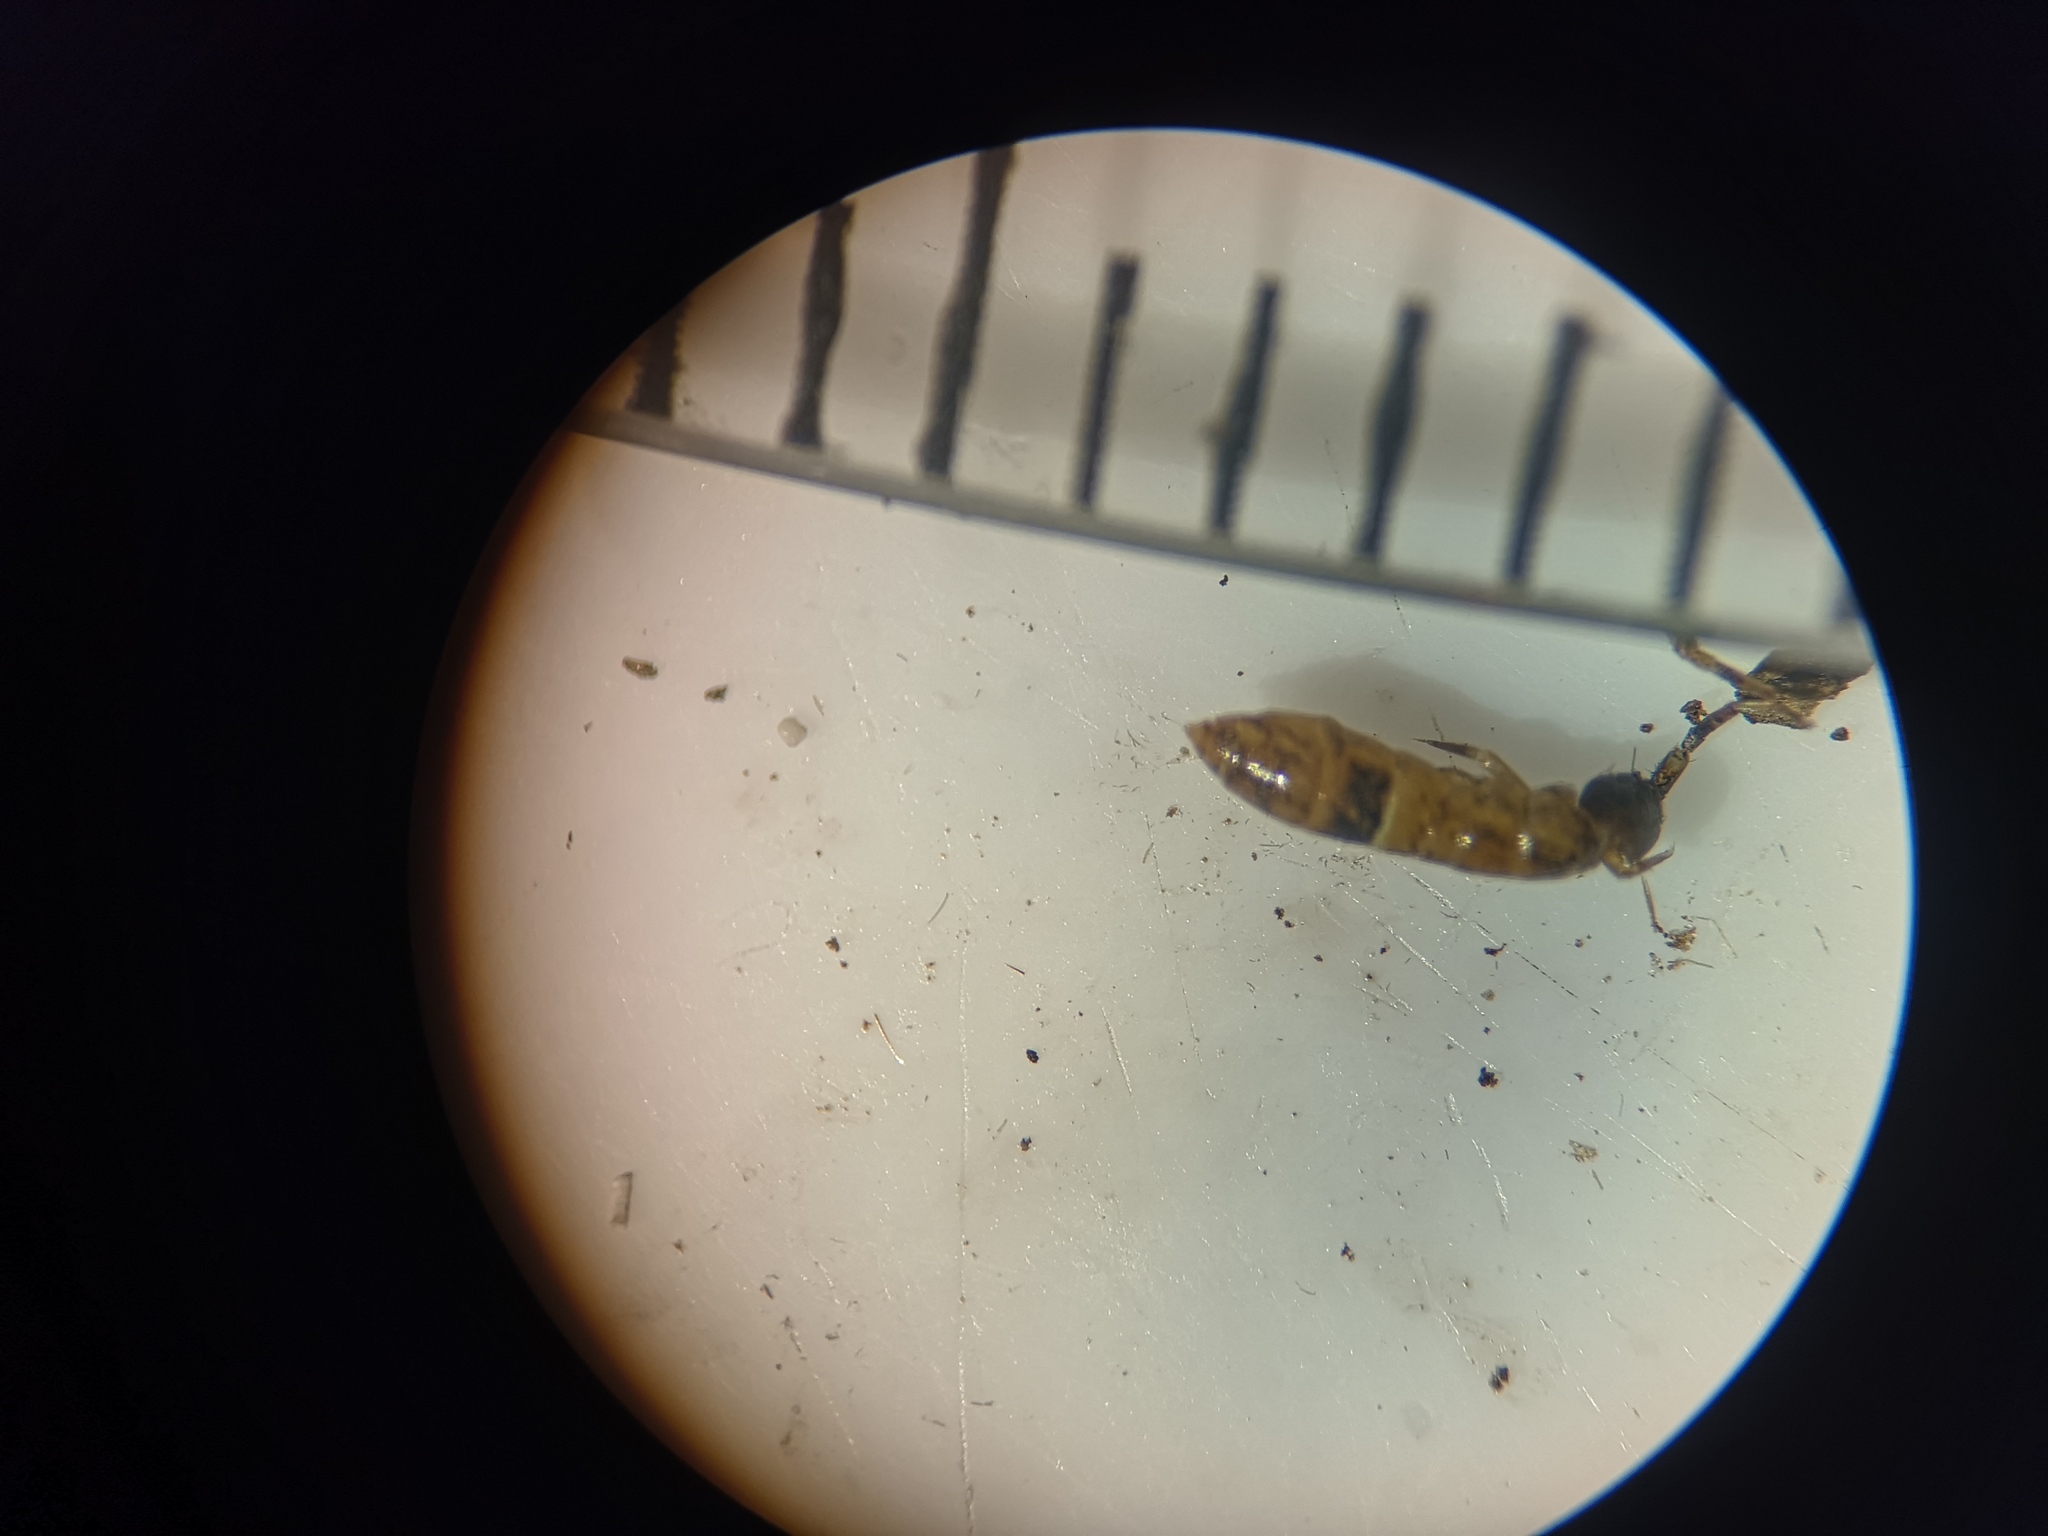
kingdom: Animalia
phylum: Arthropoda
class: Collembola
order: Entomobryomorpha
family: Orchesellidae
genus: Orchesella
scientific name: Orchesella cincta
